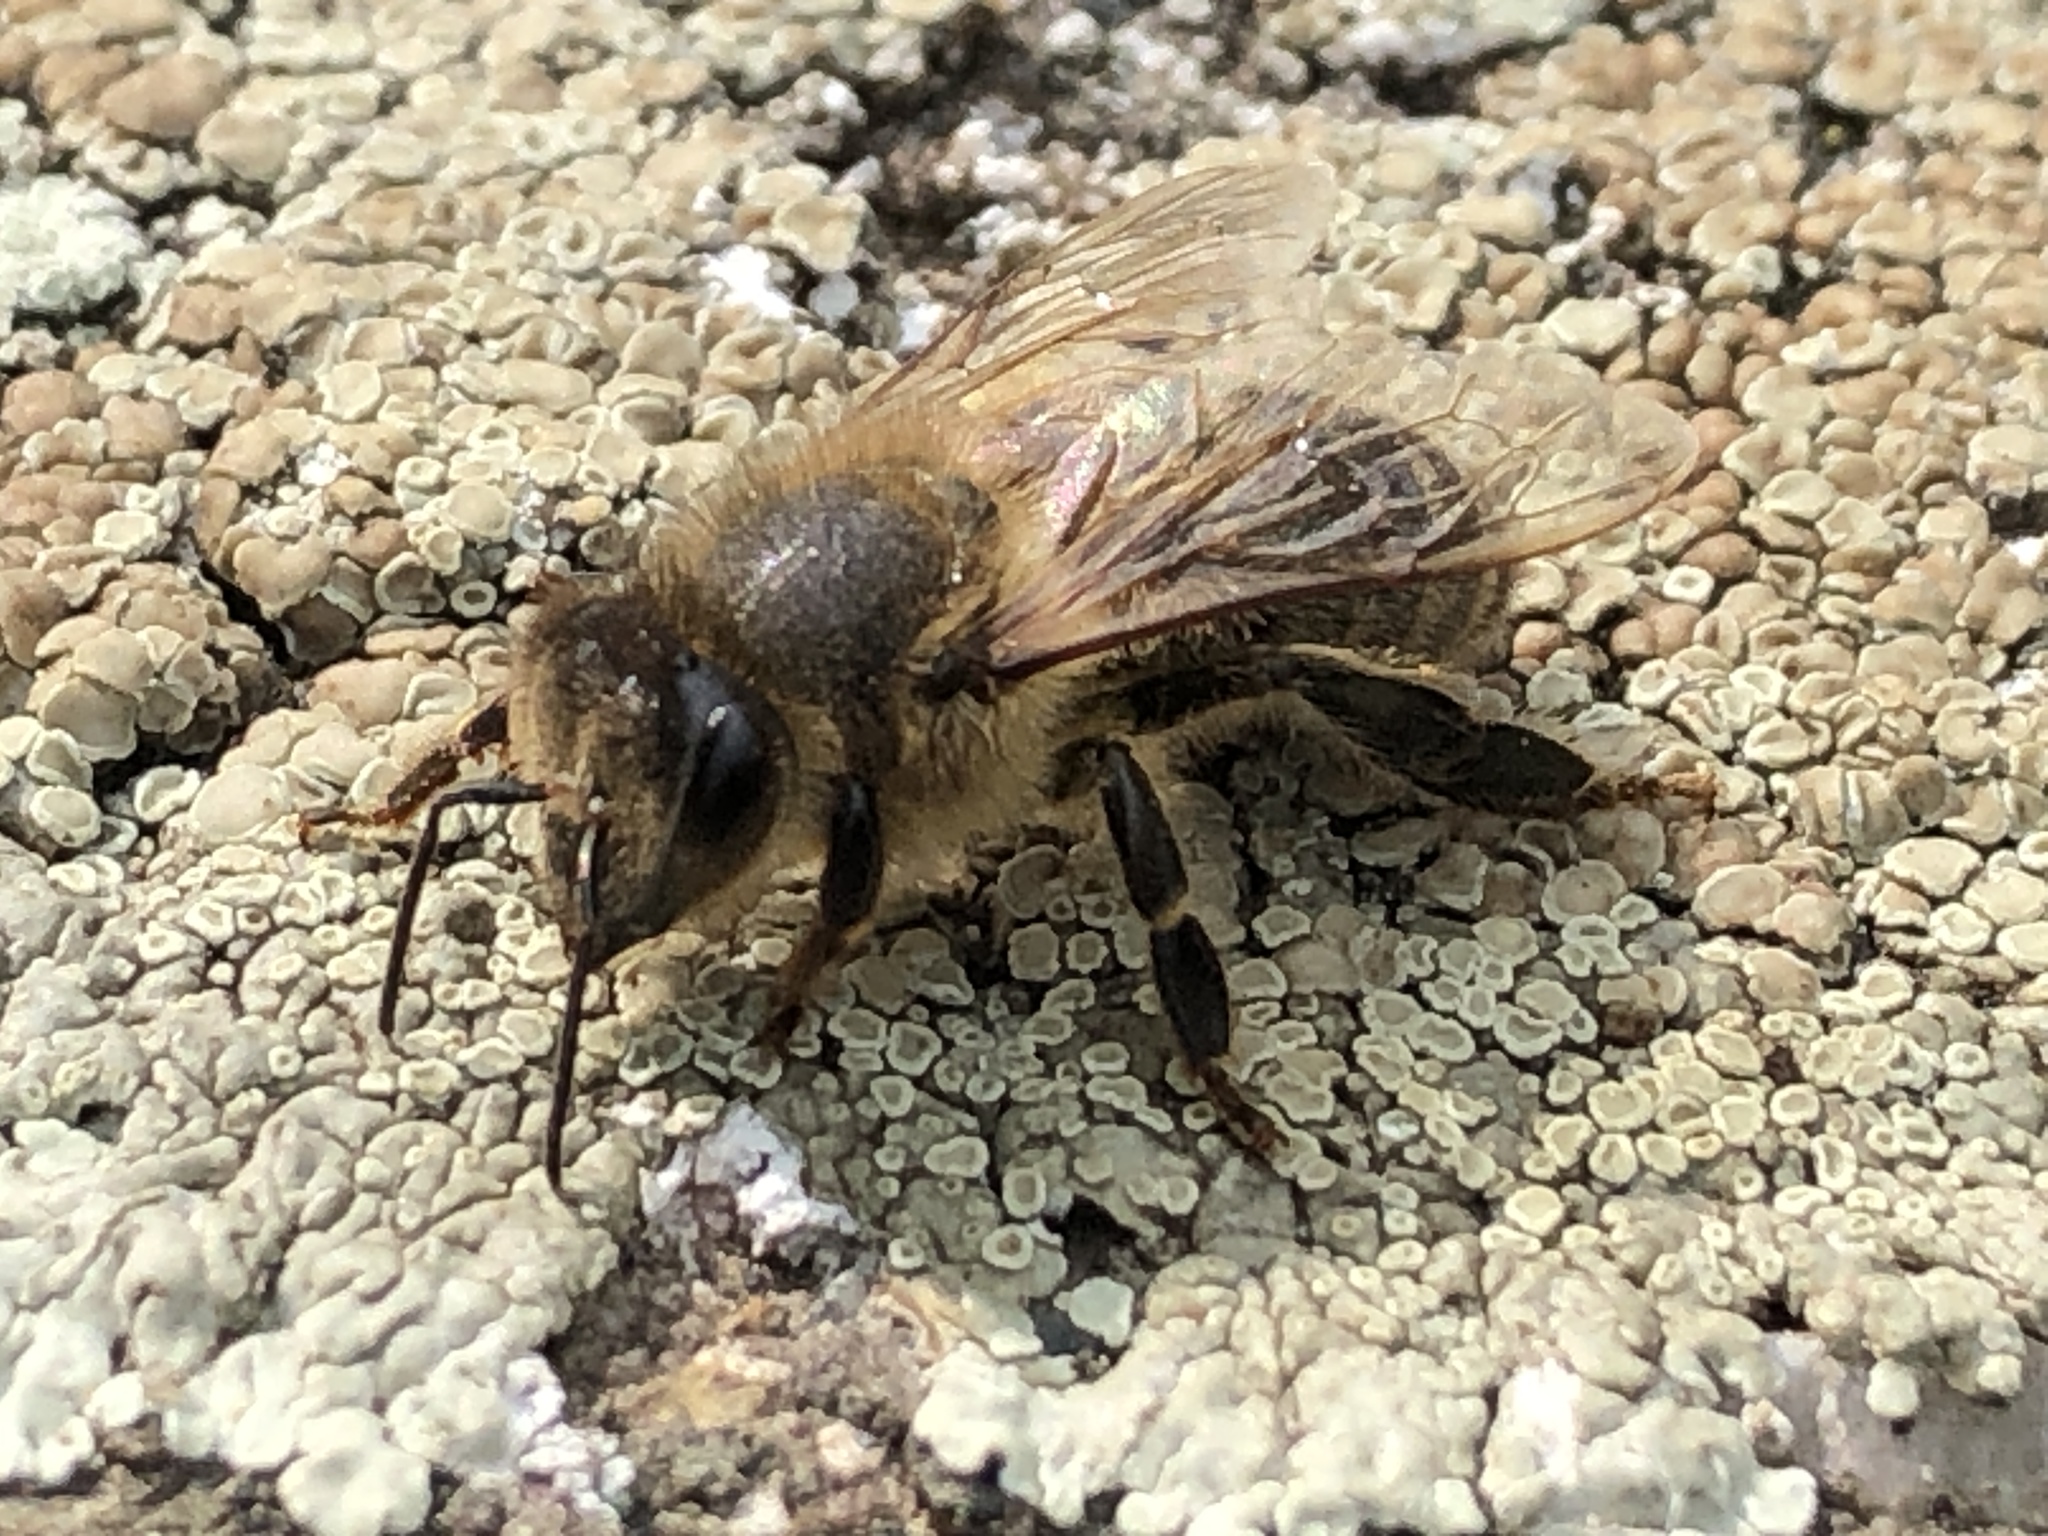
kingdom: Animalia
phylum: Arthropoda
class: Insecta
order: Hymenoptera
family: Apidae
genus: Apis
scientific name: Apis mellifera
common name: Honey bee
